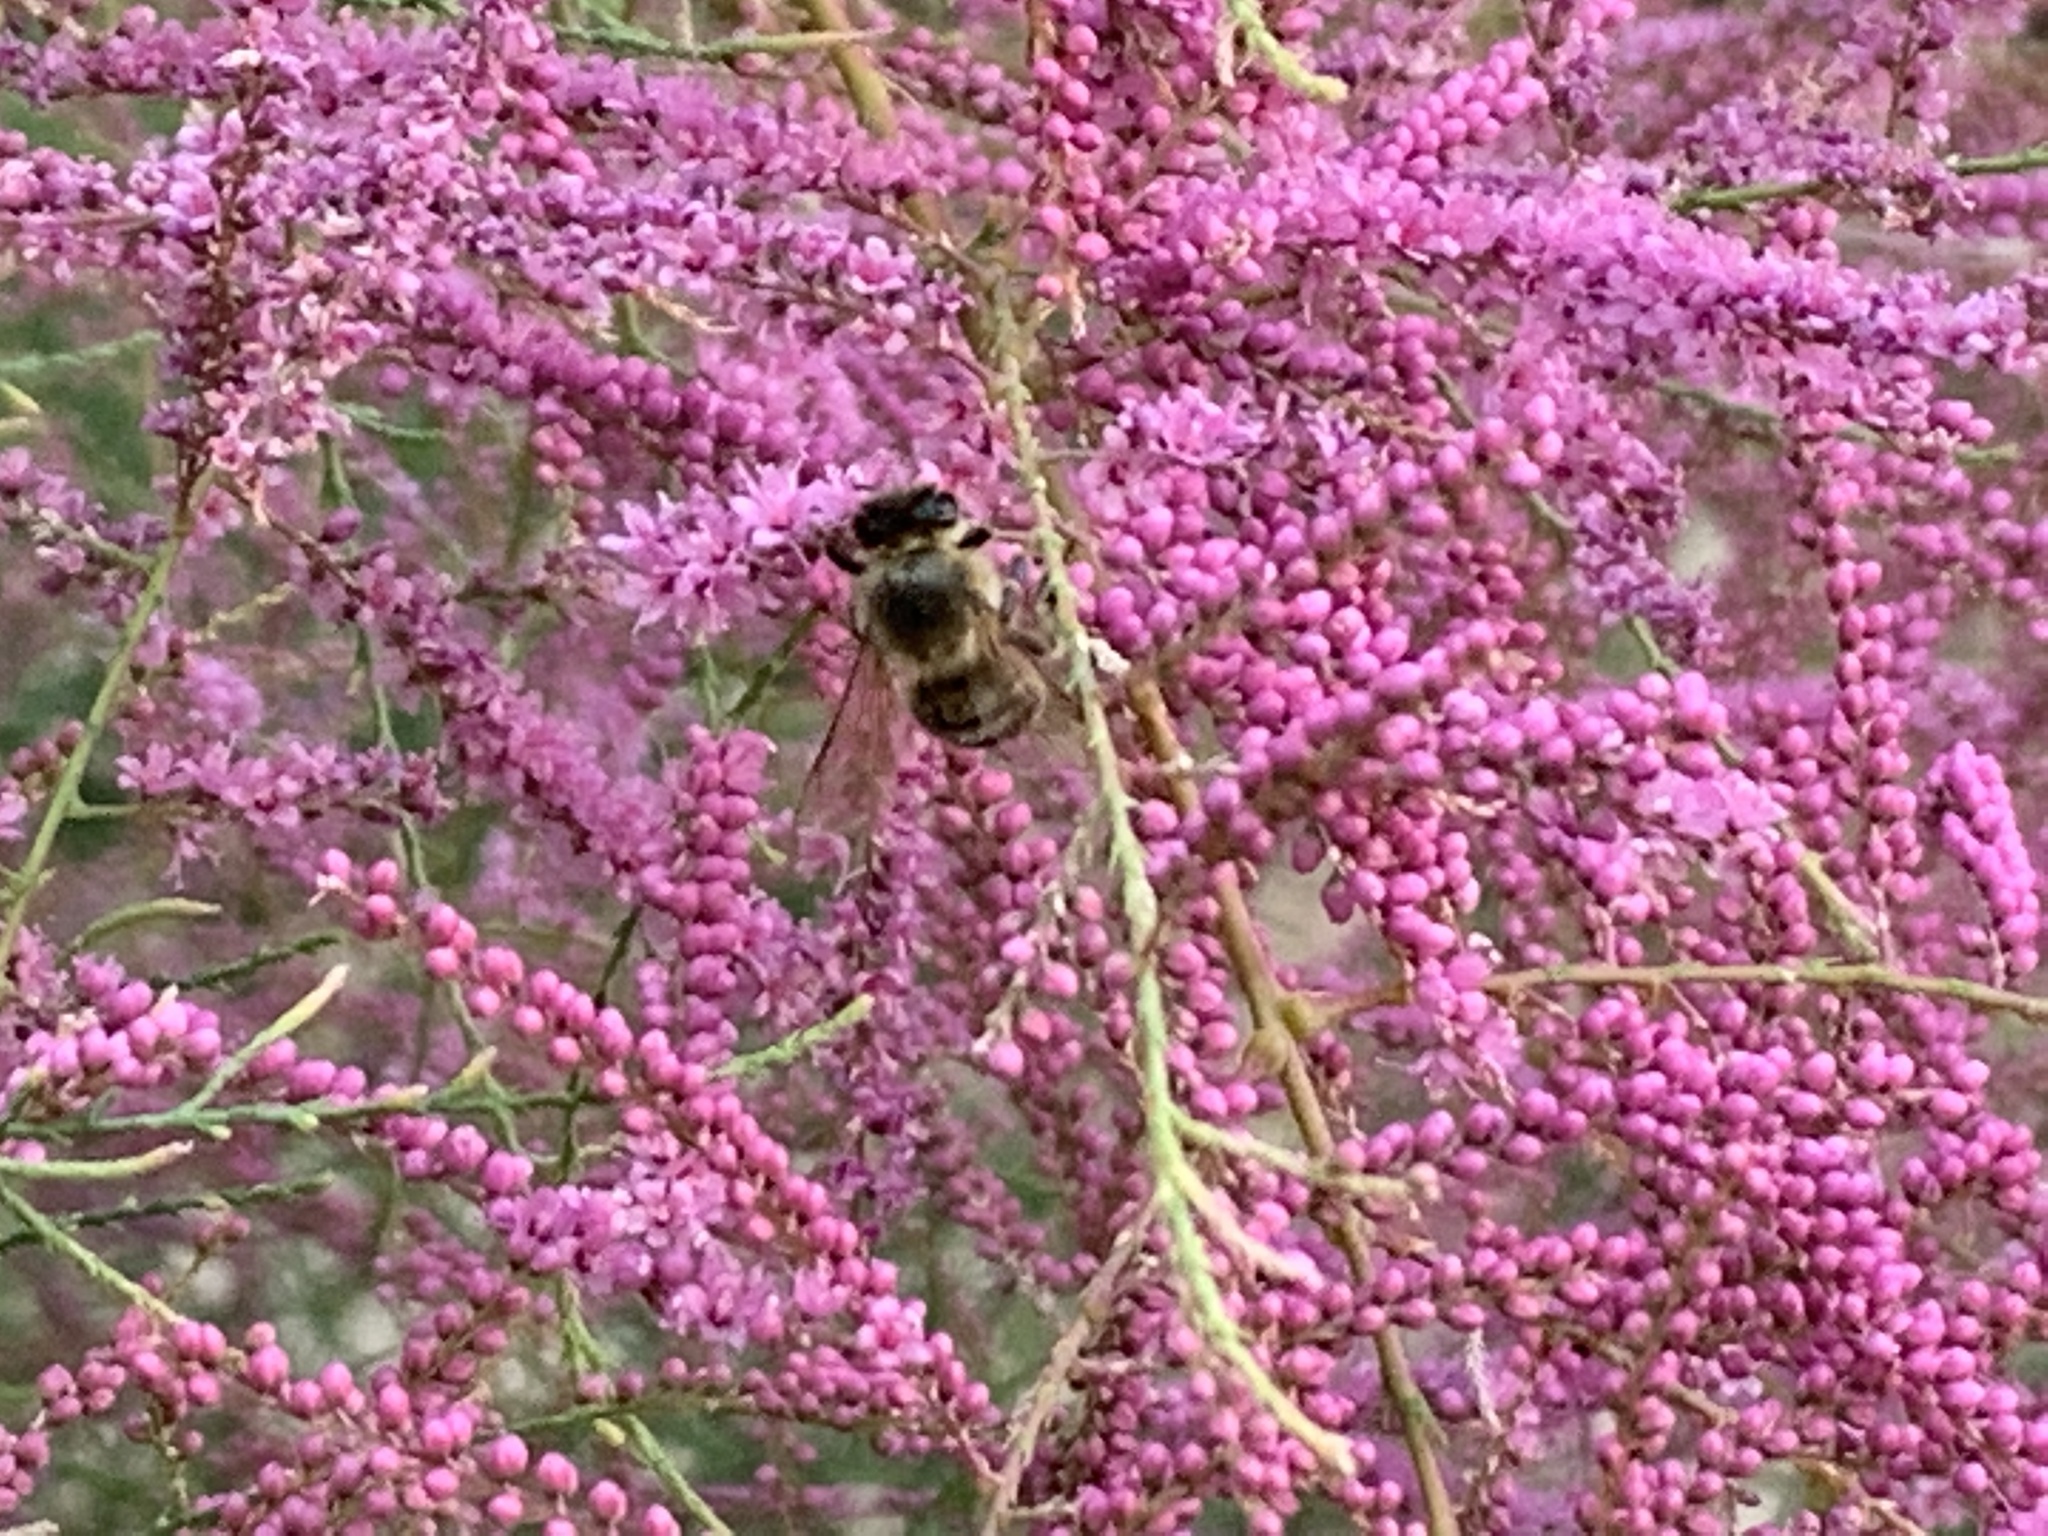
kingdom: Animalia
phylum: Arthropoda
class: Insecta
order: Hymenoptera
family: Apidae
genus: Apis
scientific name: Apis mellifera
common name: Honey bee
